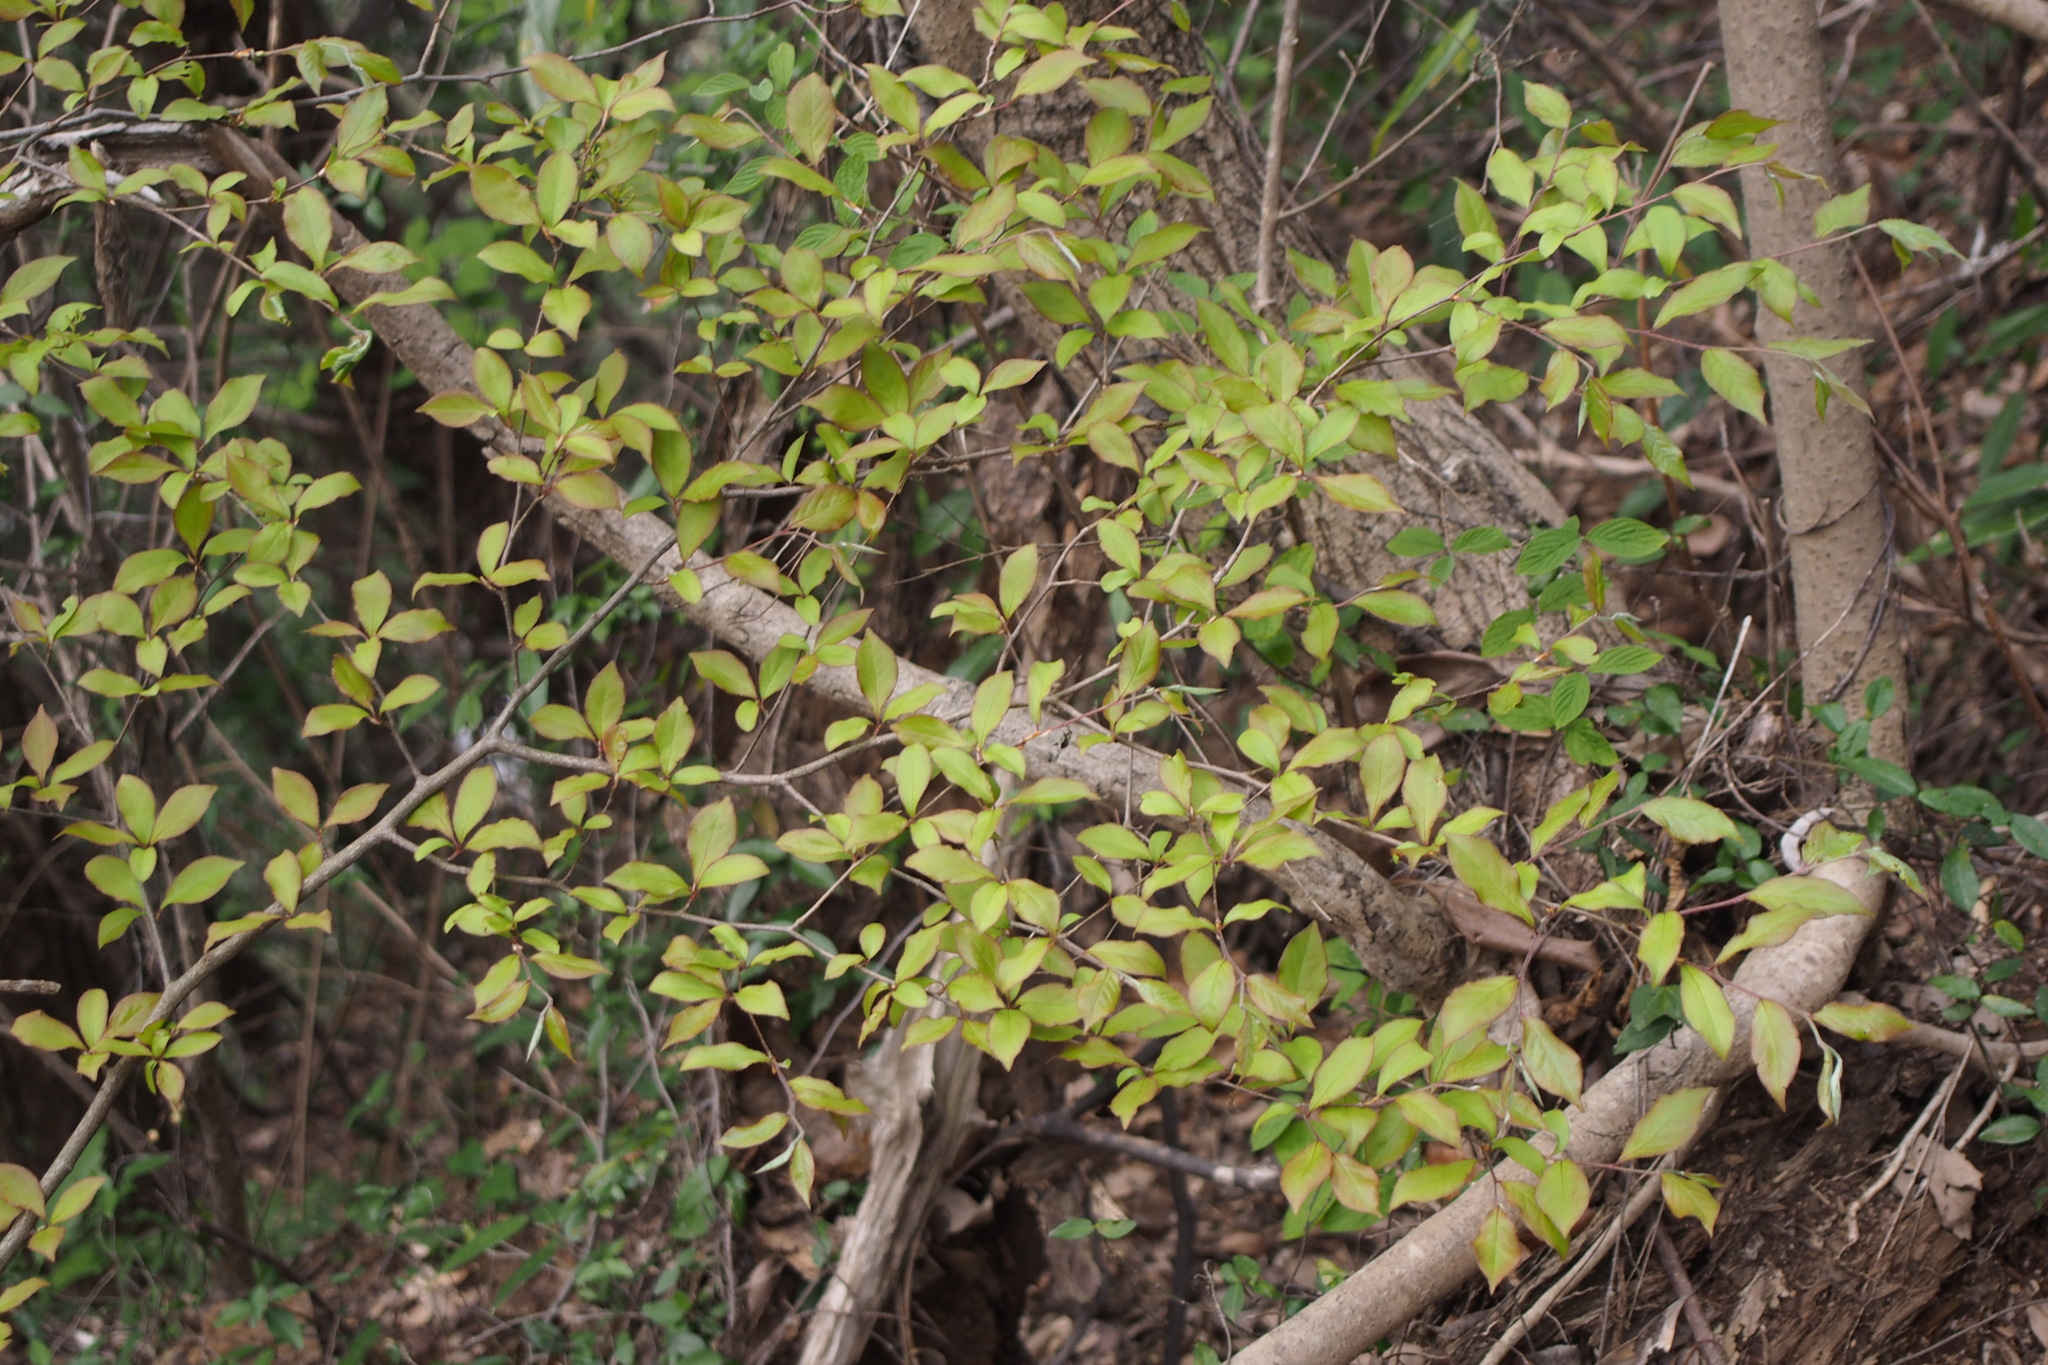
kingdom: Plantae
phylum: Tracheophyta
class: Magnoliopsida
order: Rosales
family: Rosaceae
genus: Pourthiaea
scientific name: Pourthiaea villosa
